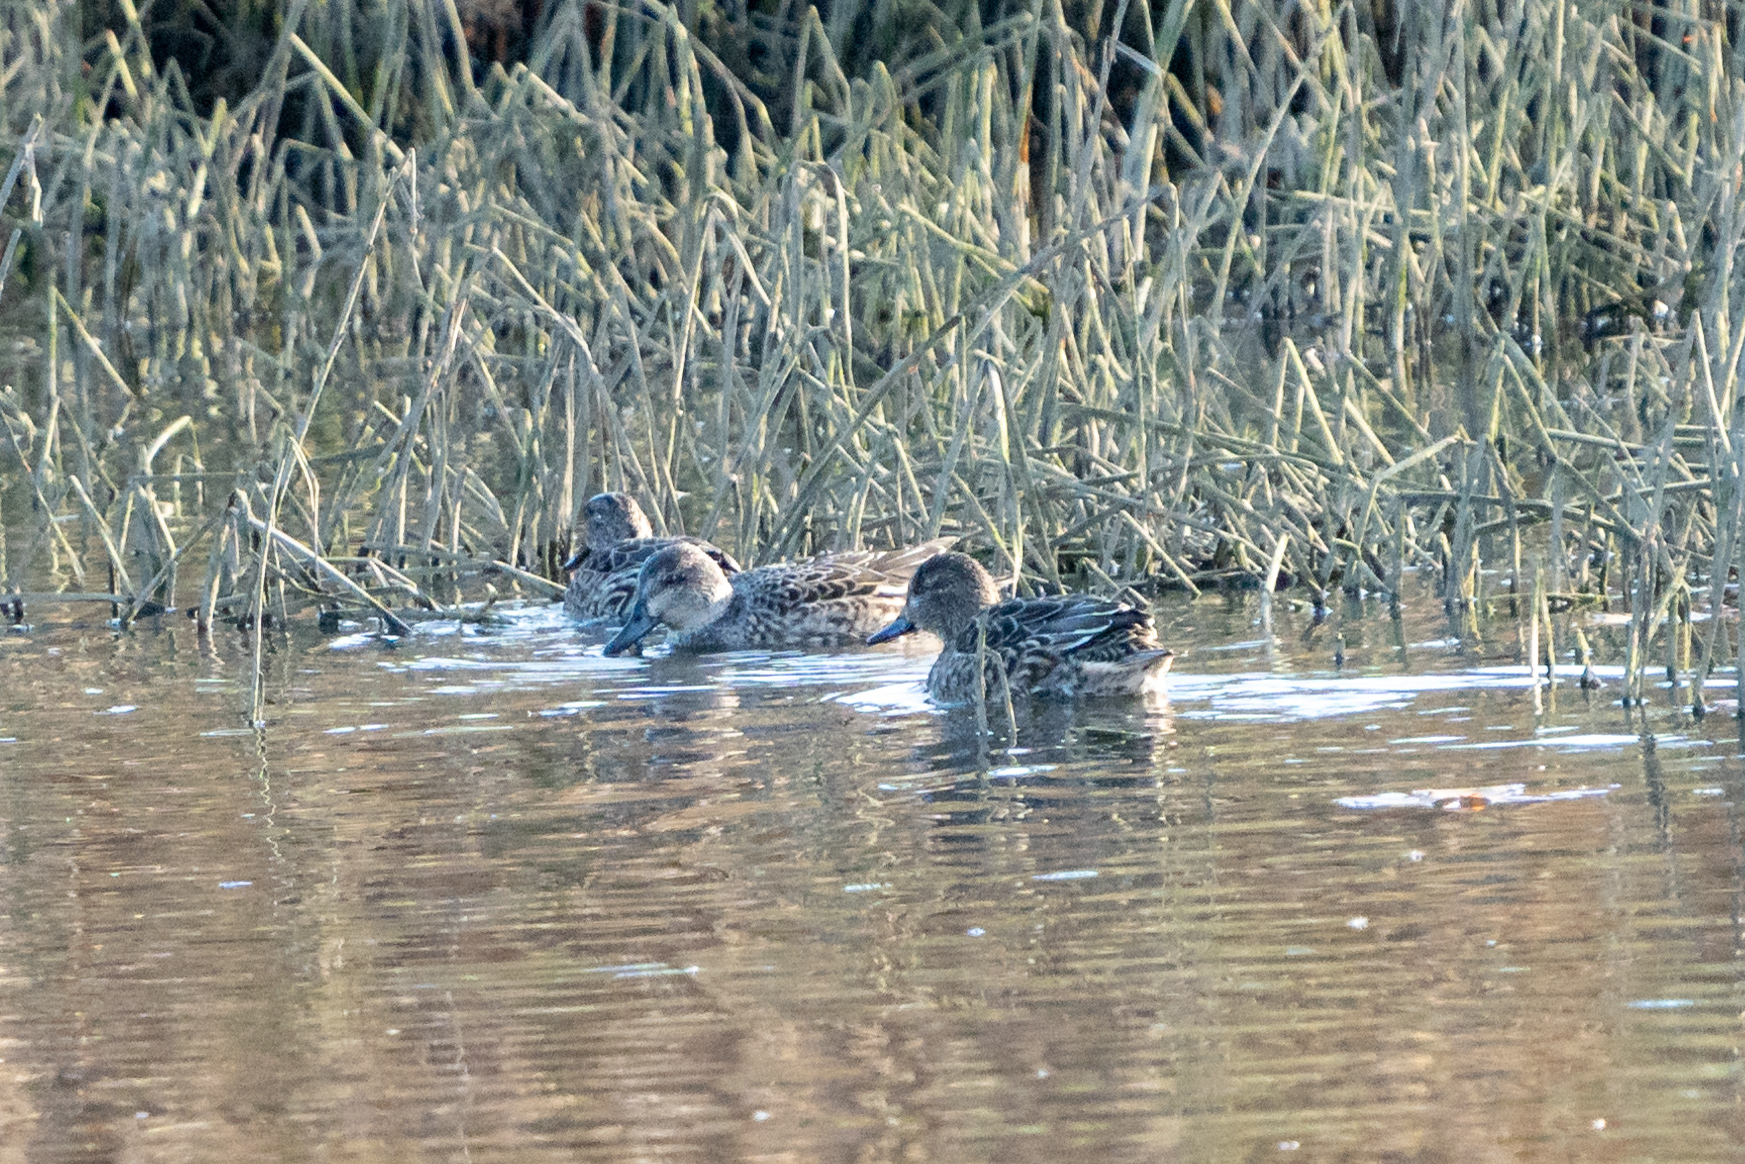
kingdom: Animalia
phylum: Chordata
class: Aves
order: Anseriformes
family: Anatidae
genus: Anas
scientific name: Anas crecca
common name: Eurasian teal
